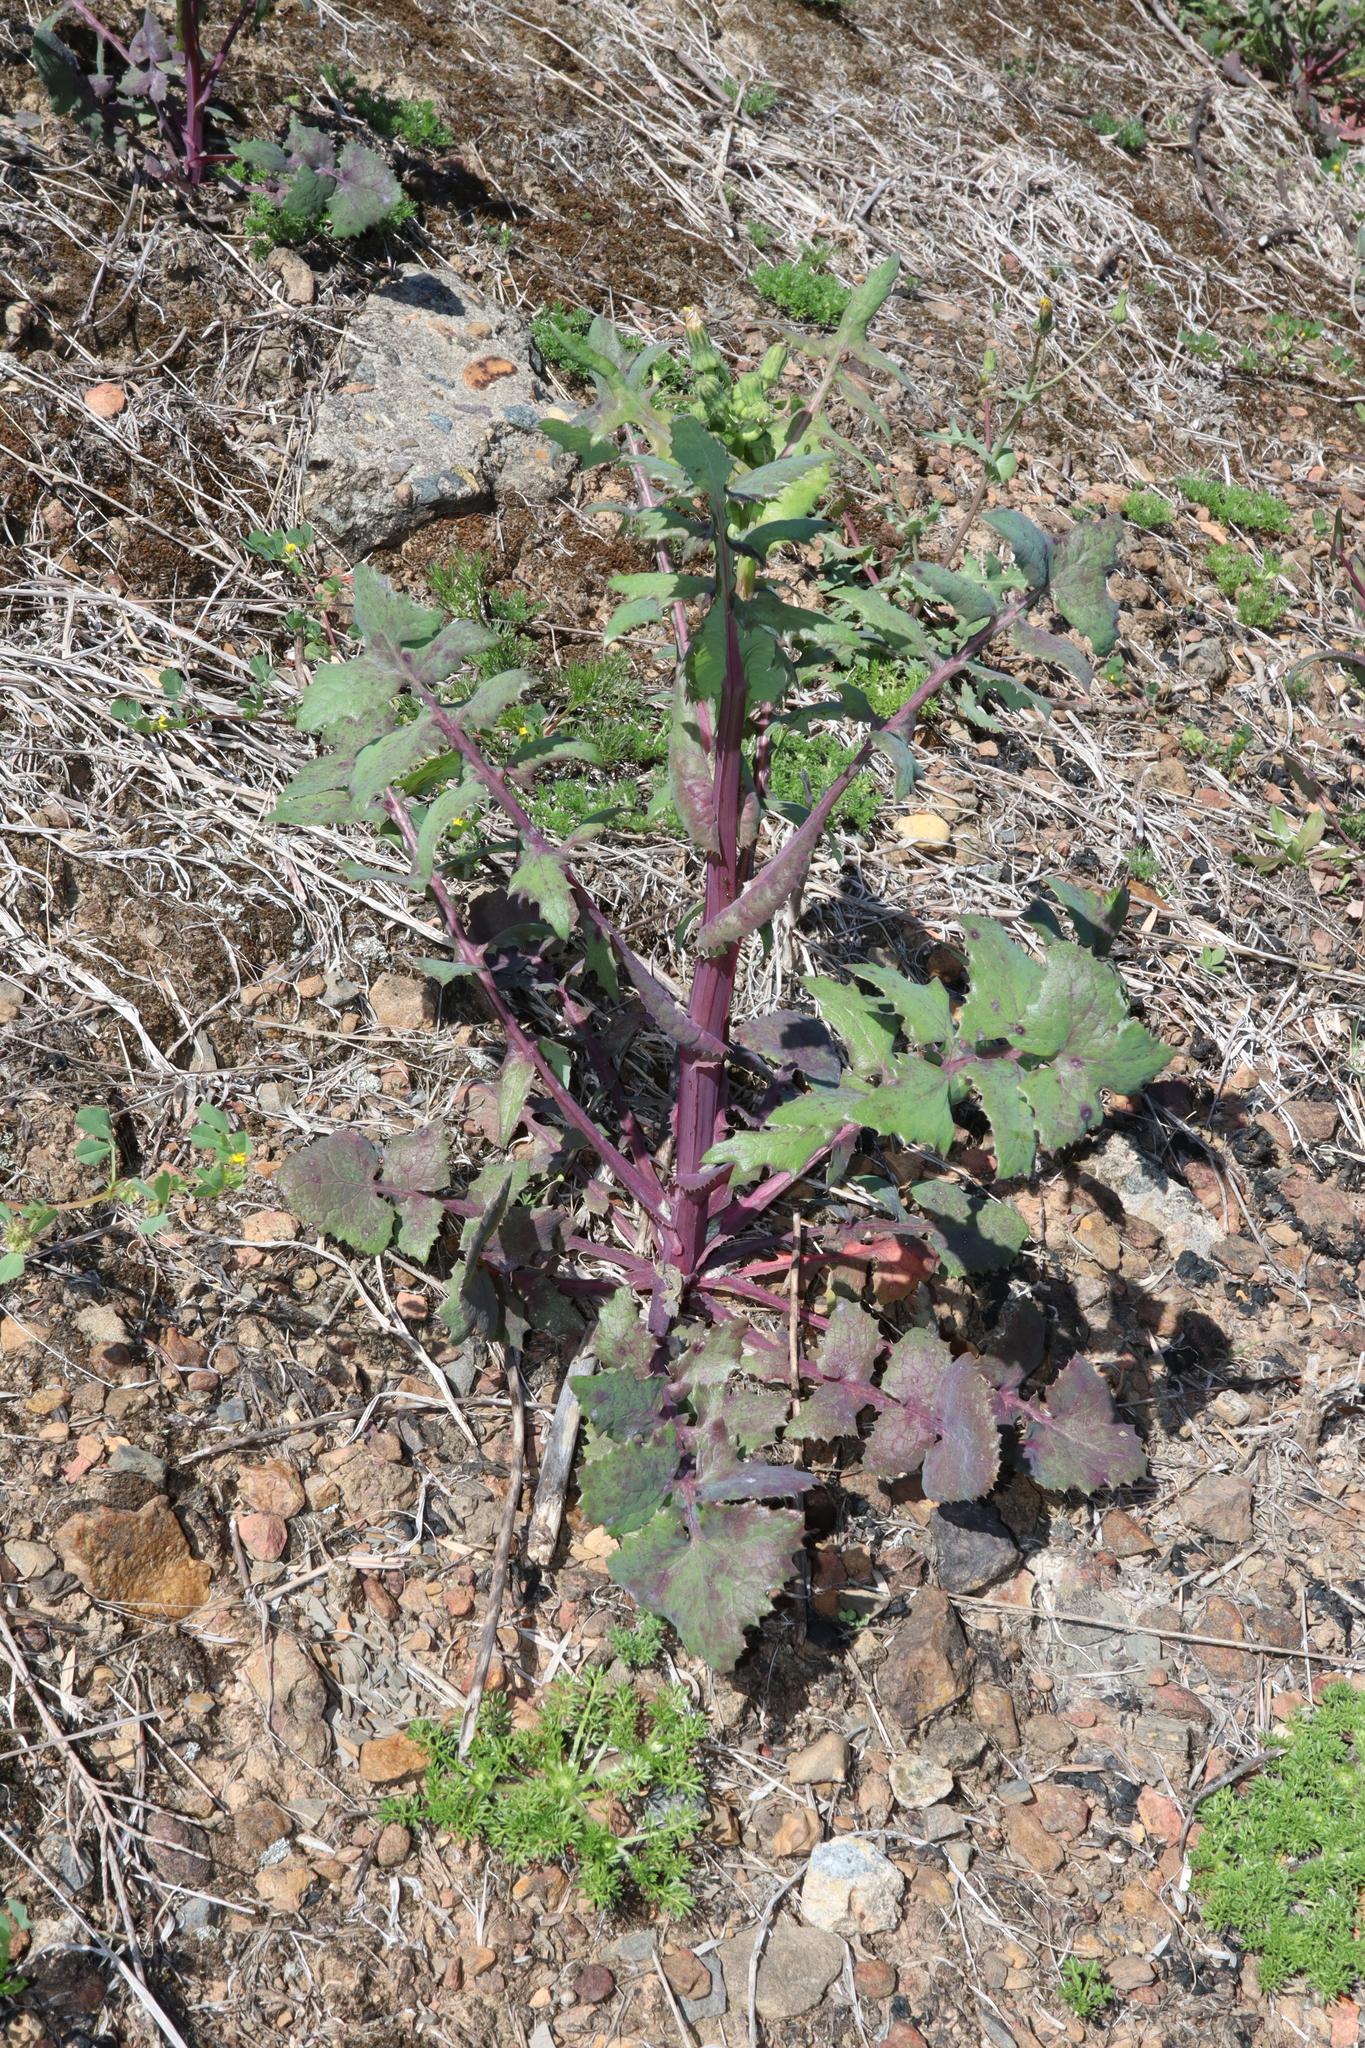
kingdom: Plantae
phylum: Tracheophyta
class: Magnoliopsida
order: Asterales
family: Asteraceae
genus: Sonchus
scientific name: Sonchus oleraceus
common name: Common sowthistle
